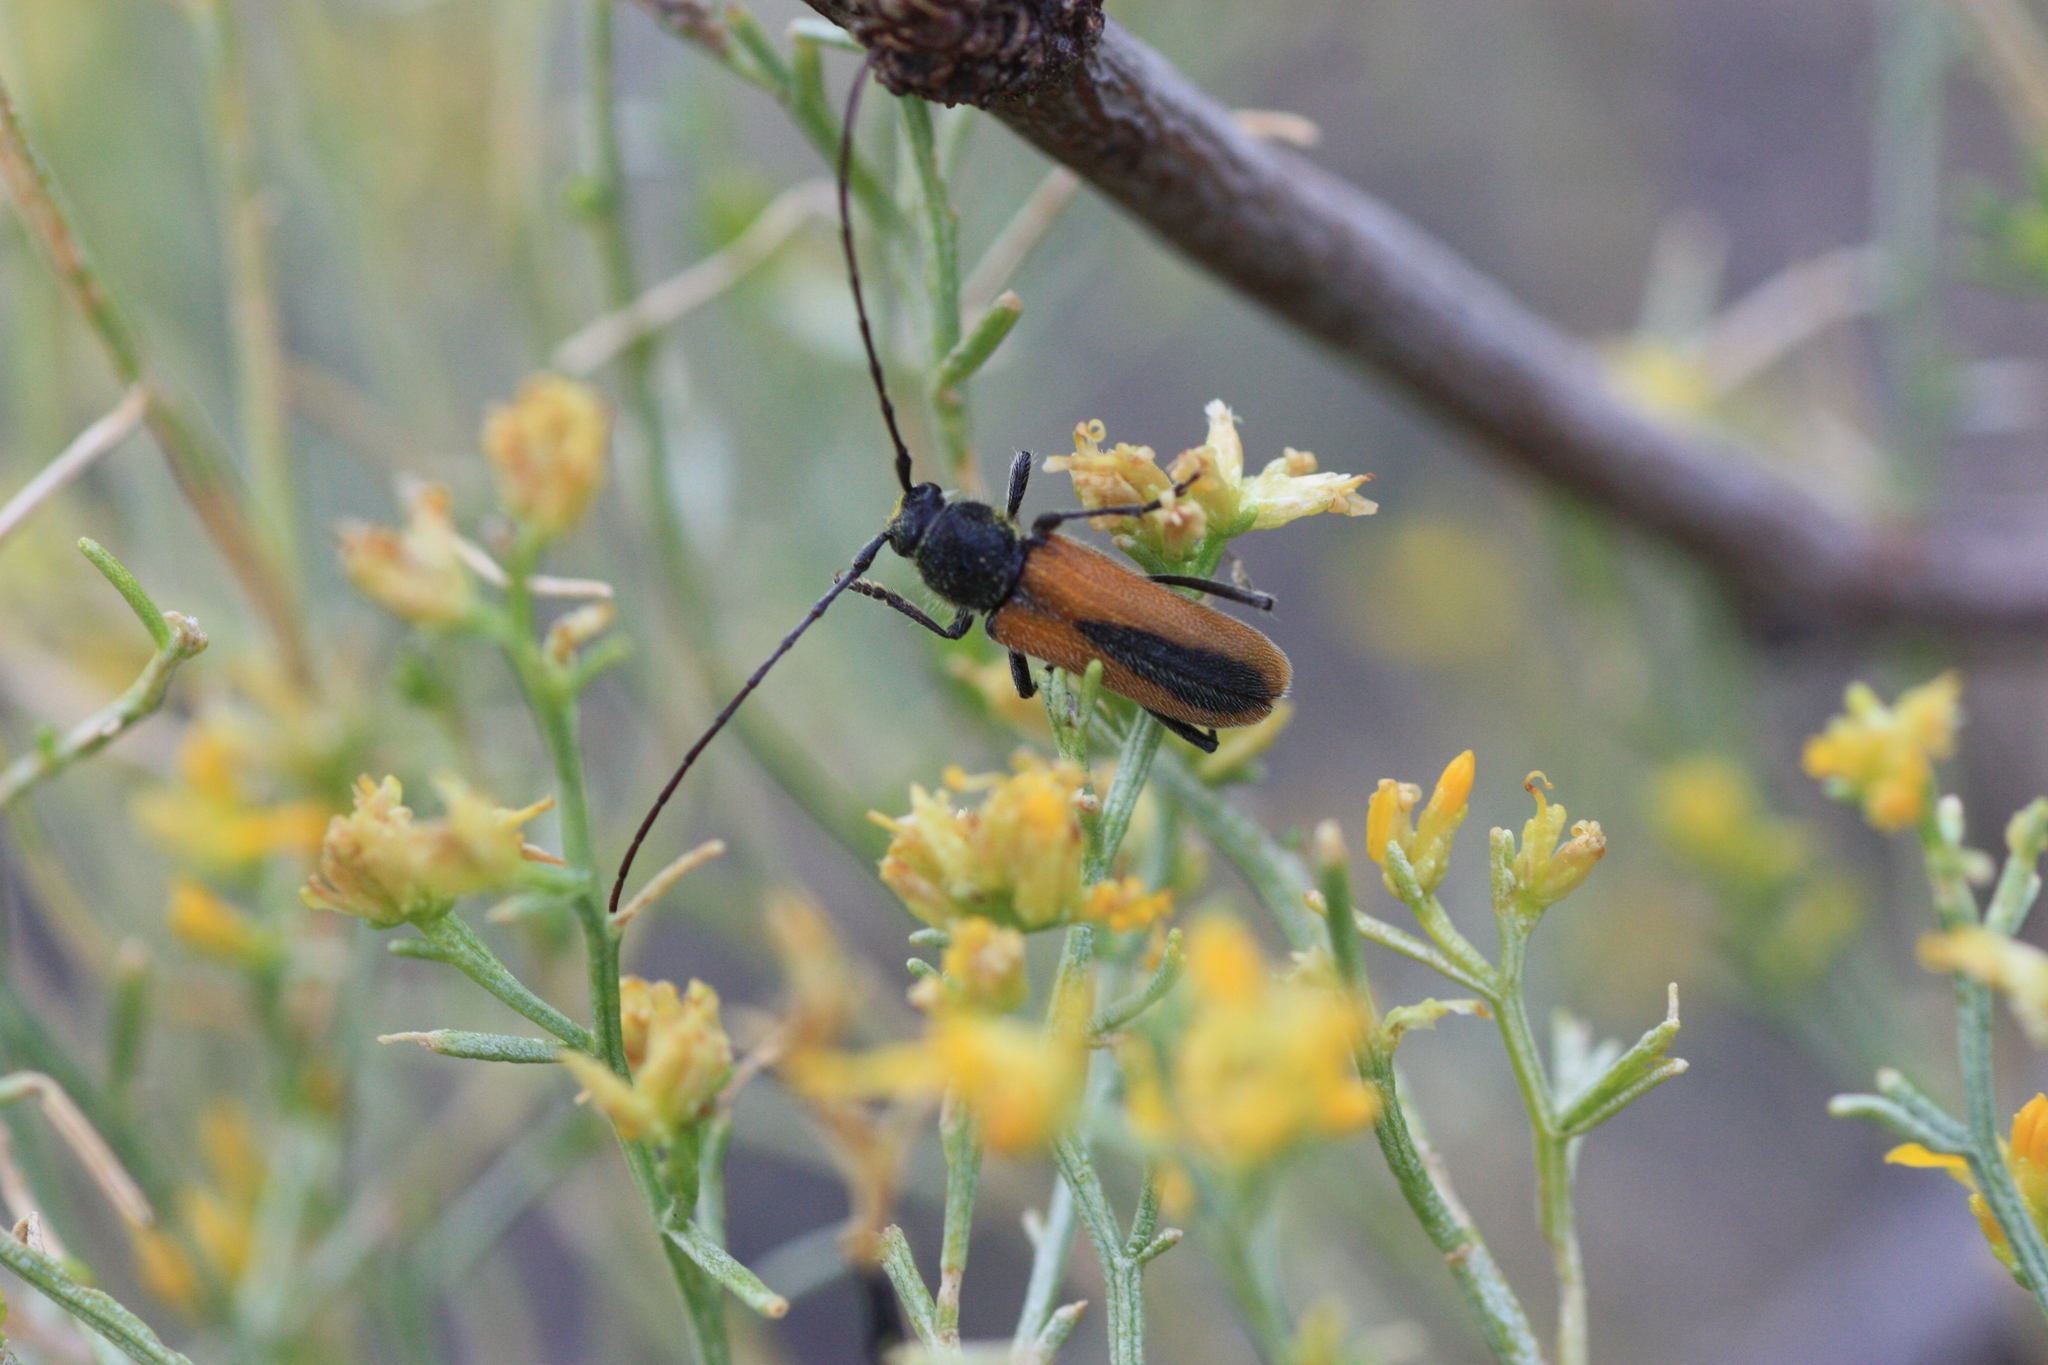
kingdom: Animalia
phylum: Arthropoda
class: Insecta
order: Coleoptera
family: Cerambycidae
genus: Crossidius
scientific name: Crossidius pulchellus
